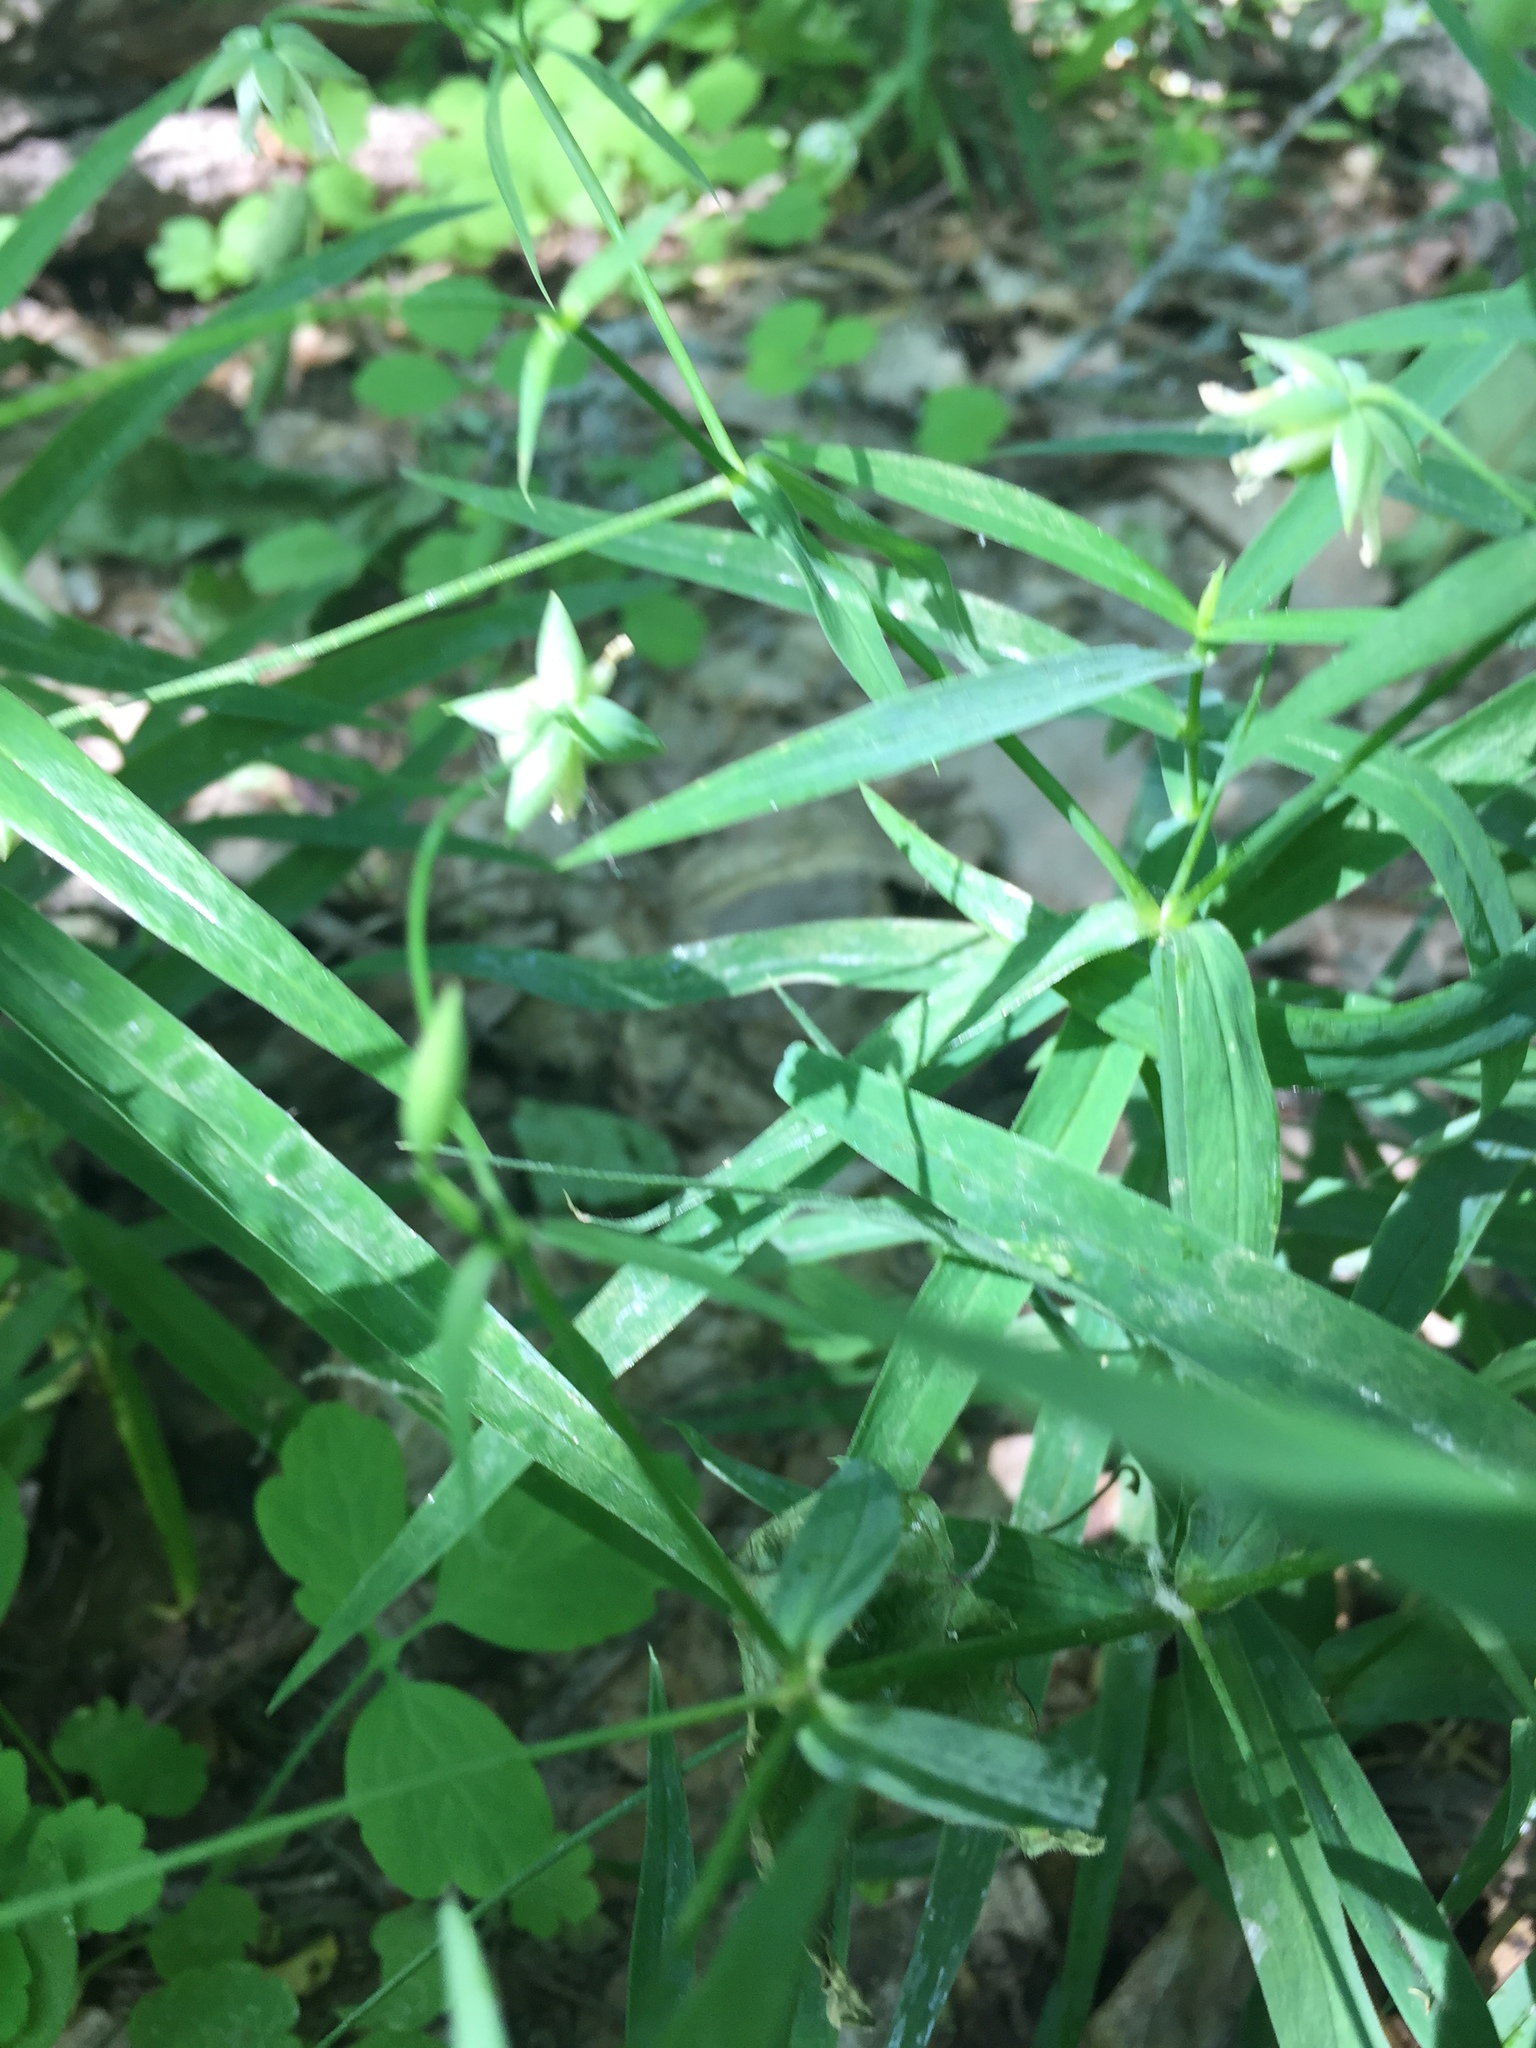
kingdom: Plantae
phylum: Tracheophyta
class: Magnoliopsida
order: Caryophyllales
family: Caryophyllaceae
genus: Rabelera
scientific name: Rabelera holostea
